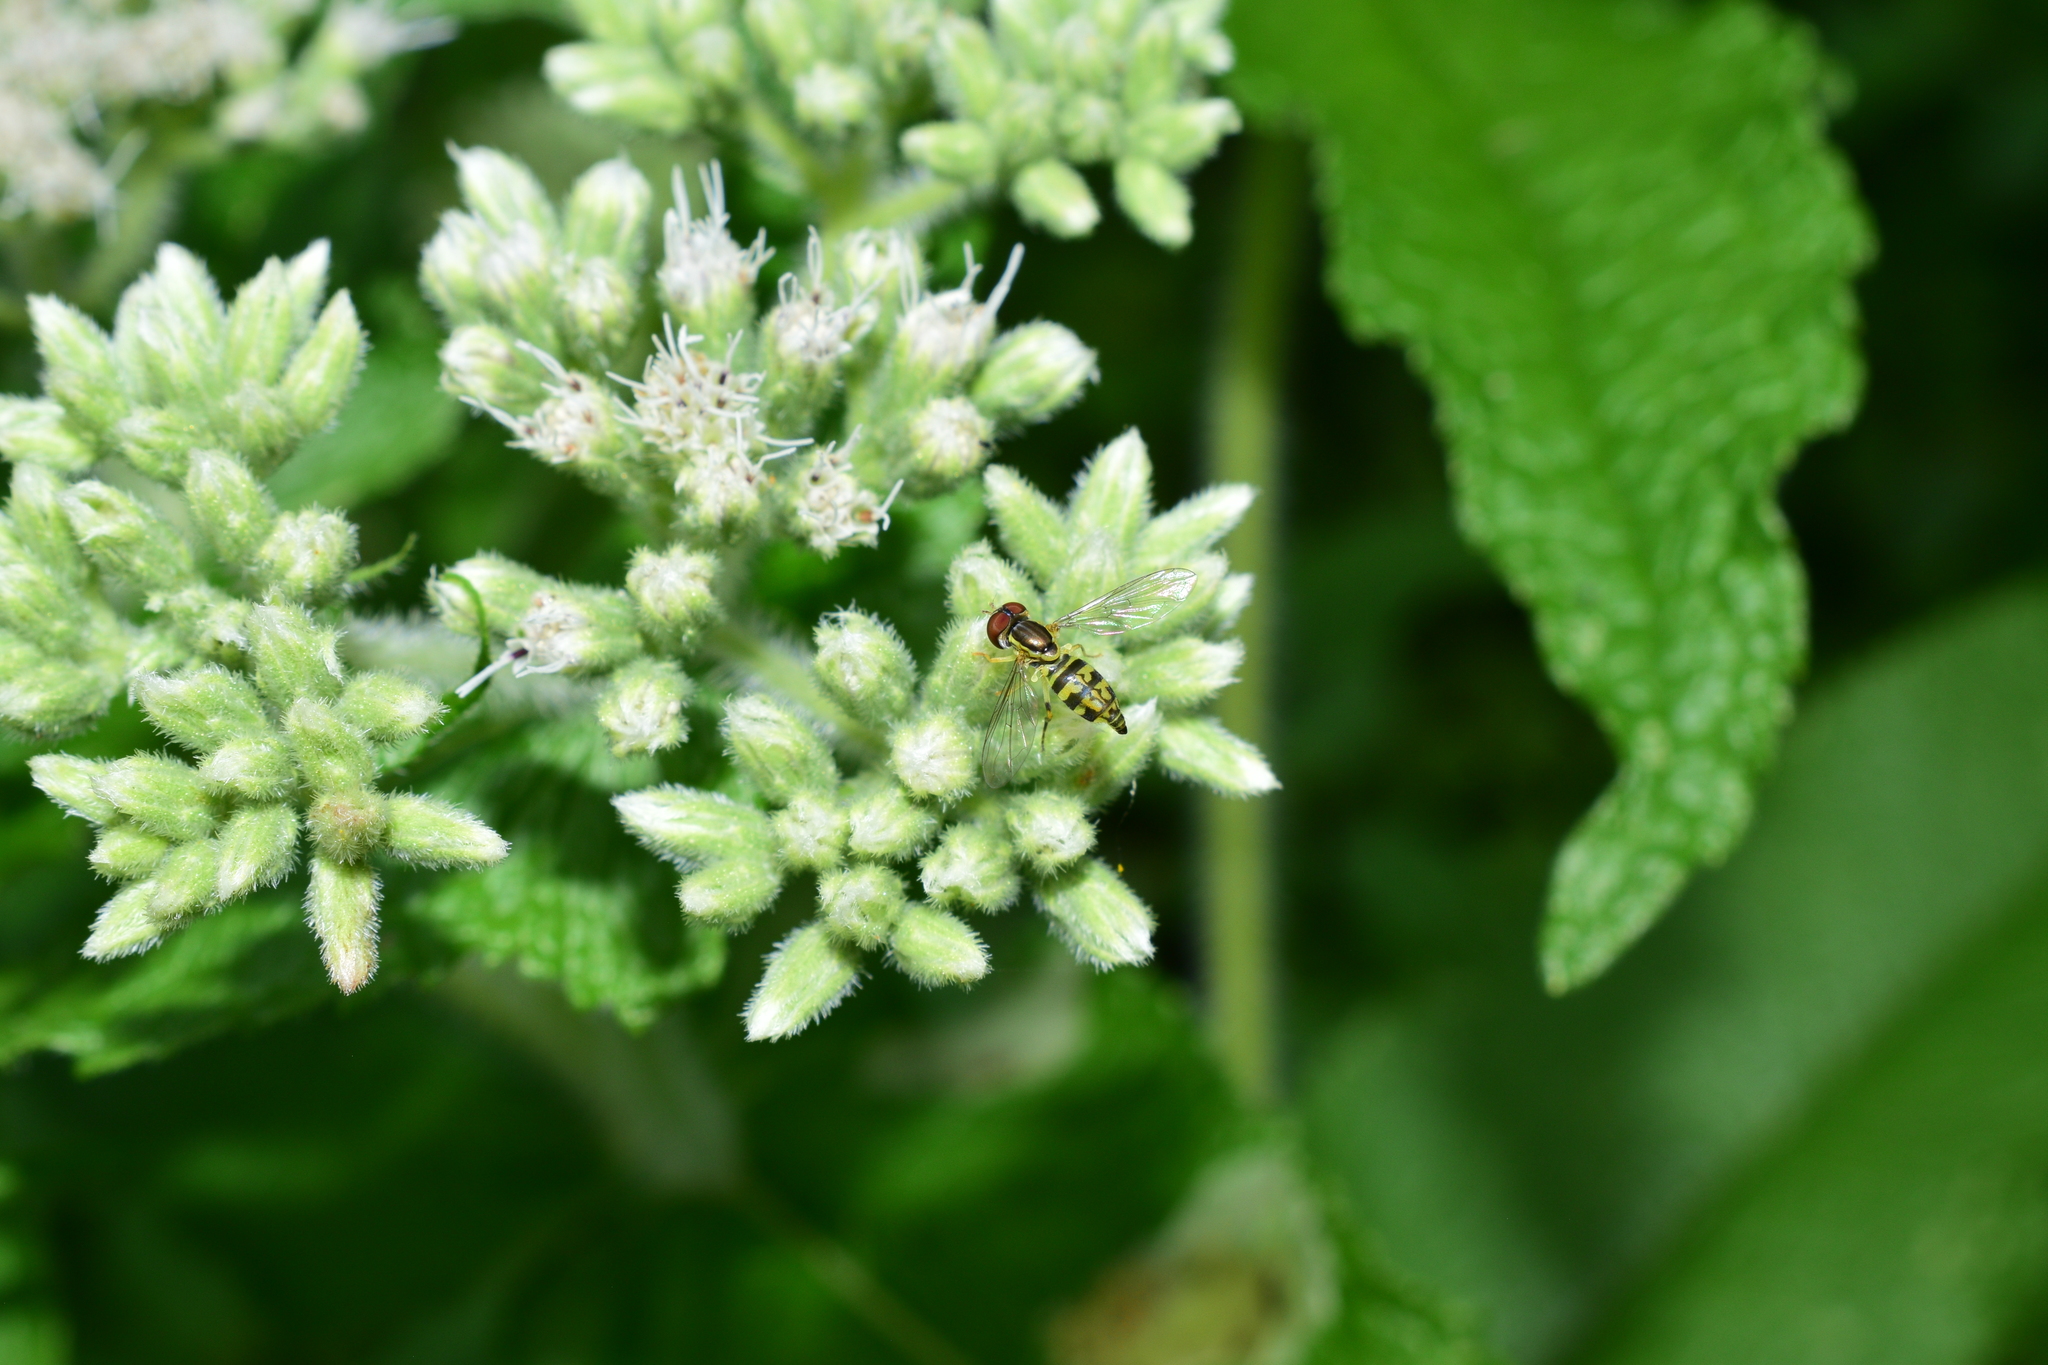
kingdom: Animalia
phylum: Arthropoda
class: Insecta
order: Diptera
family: Syrphidae
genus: Toxomerus
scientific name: Toxomerus geminatus
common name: Eastern calligrapher
